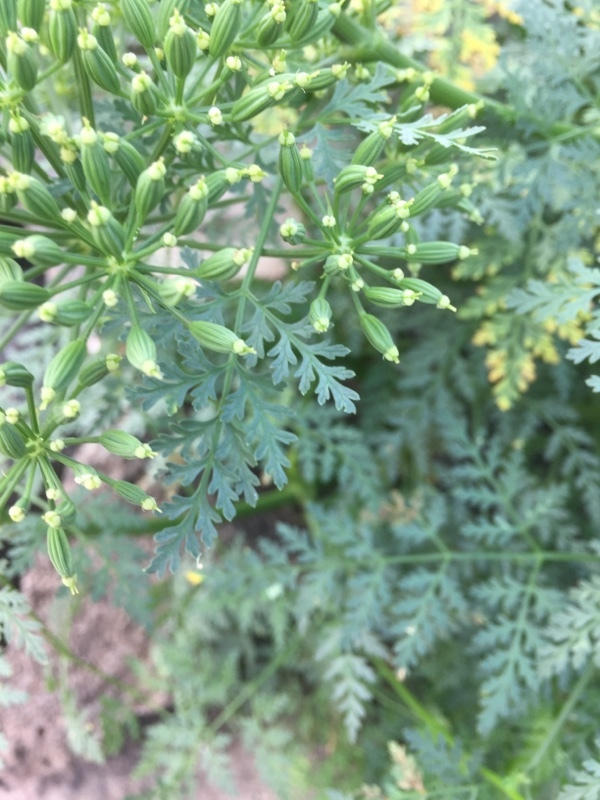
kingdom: Plantae
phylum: Tracheophyta
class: Magnoliopsida
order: Apiales
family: Apiaceae
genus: Todaroa
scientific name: Todaroa aurea
